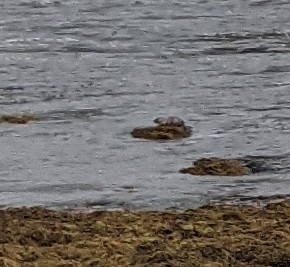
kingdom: Animalia
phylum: Chordata
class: Mammalia
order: Carnivora
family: Mustelidae
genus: Lutra
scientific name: Lutra lutra
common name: European otter
